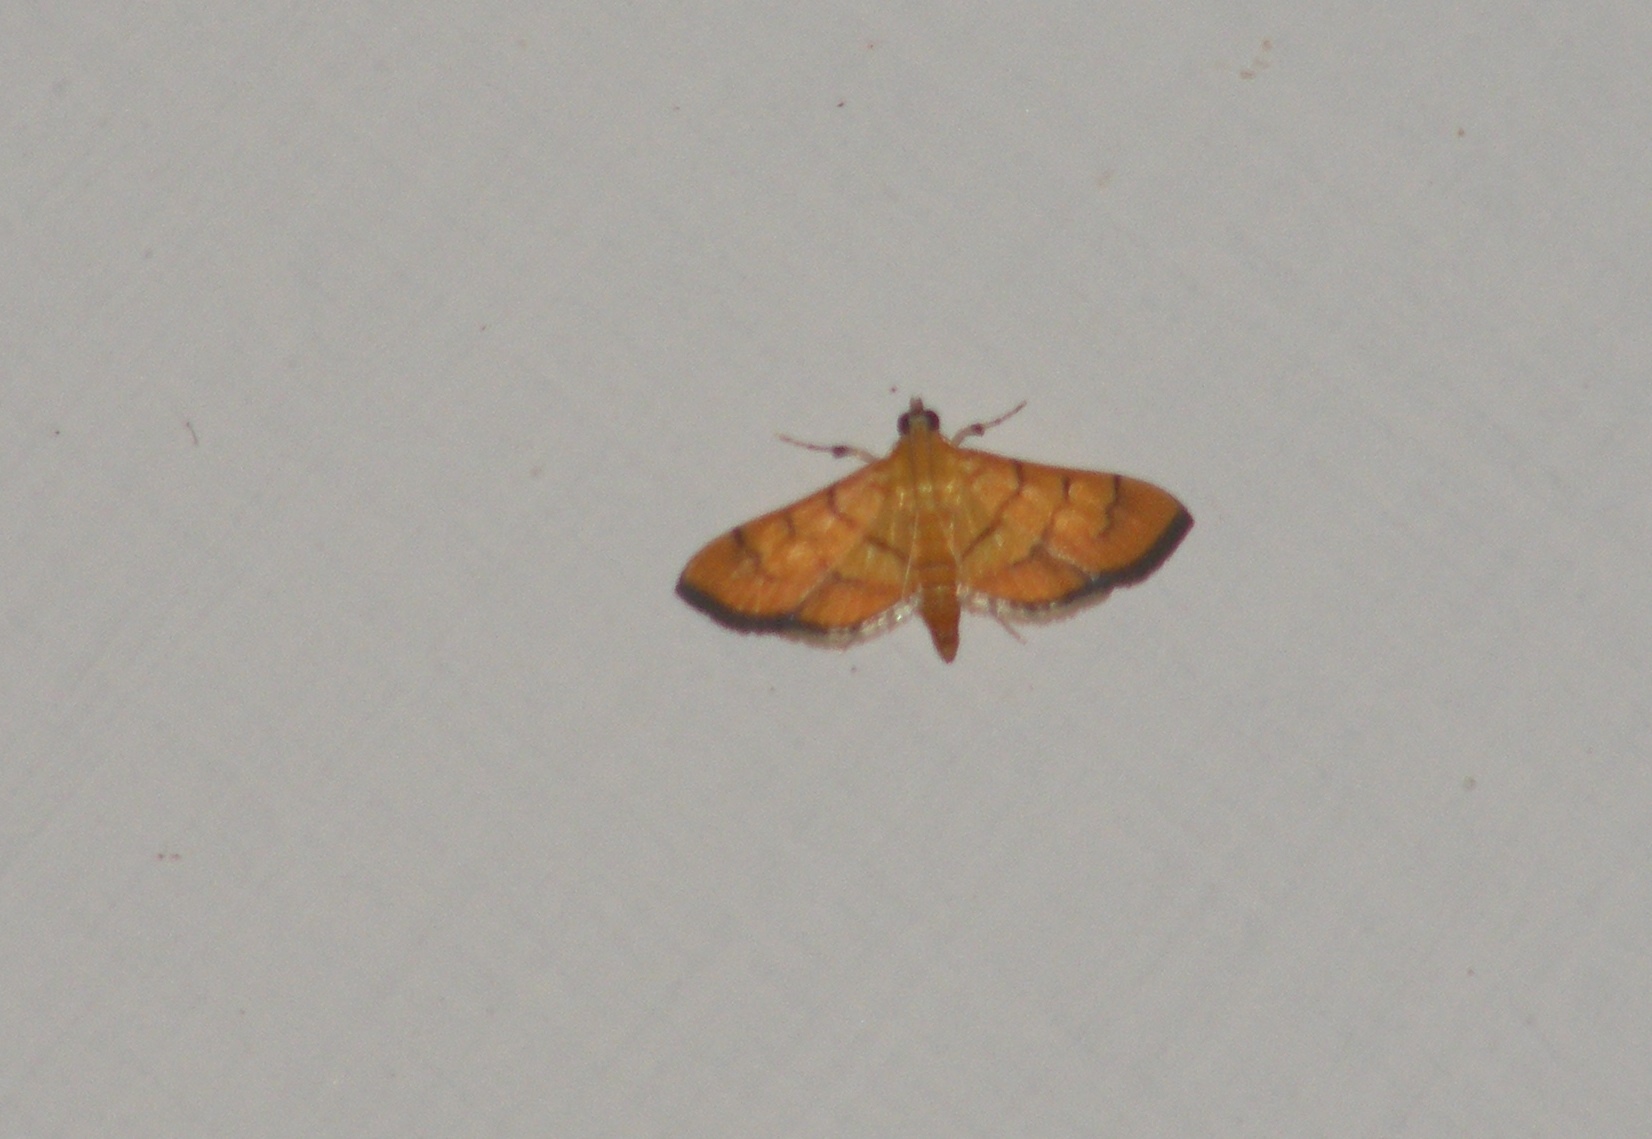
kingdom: Animalia
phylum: Arthropoda
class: Insecta
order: Lepidoptera
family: Crambidae
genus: Orphanostigma
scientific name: Orphanostigma abruptalis
